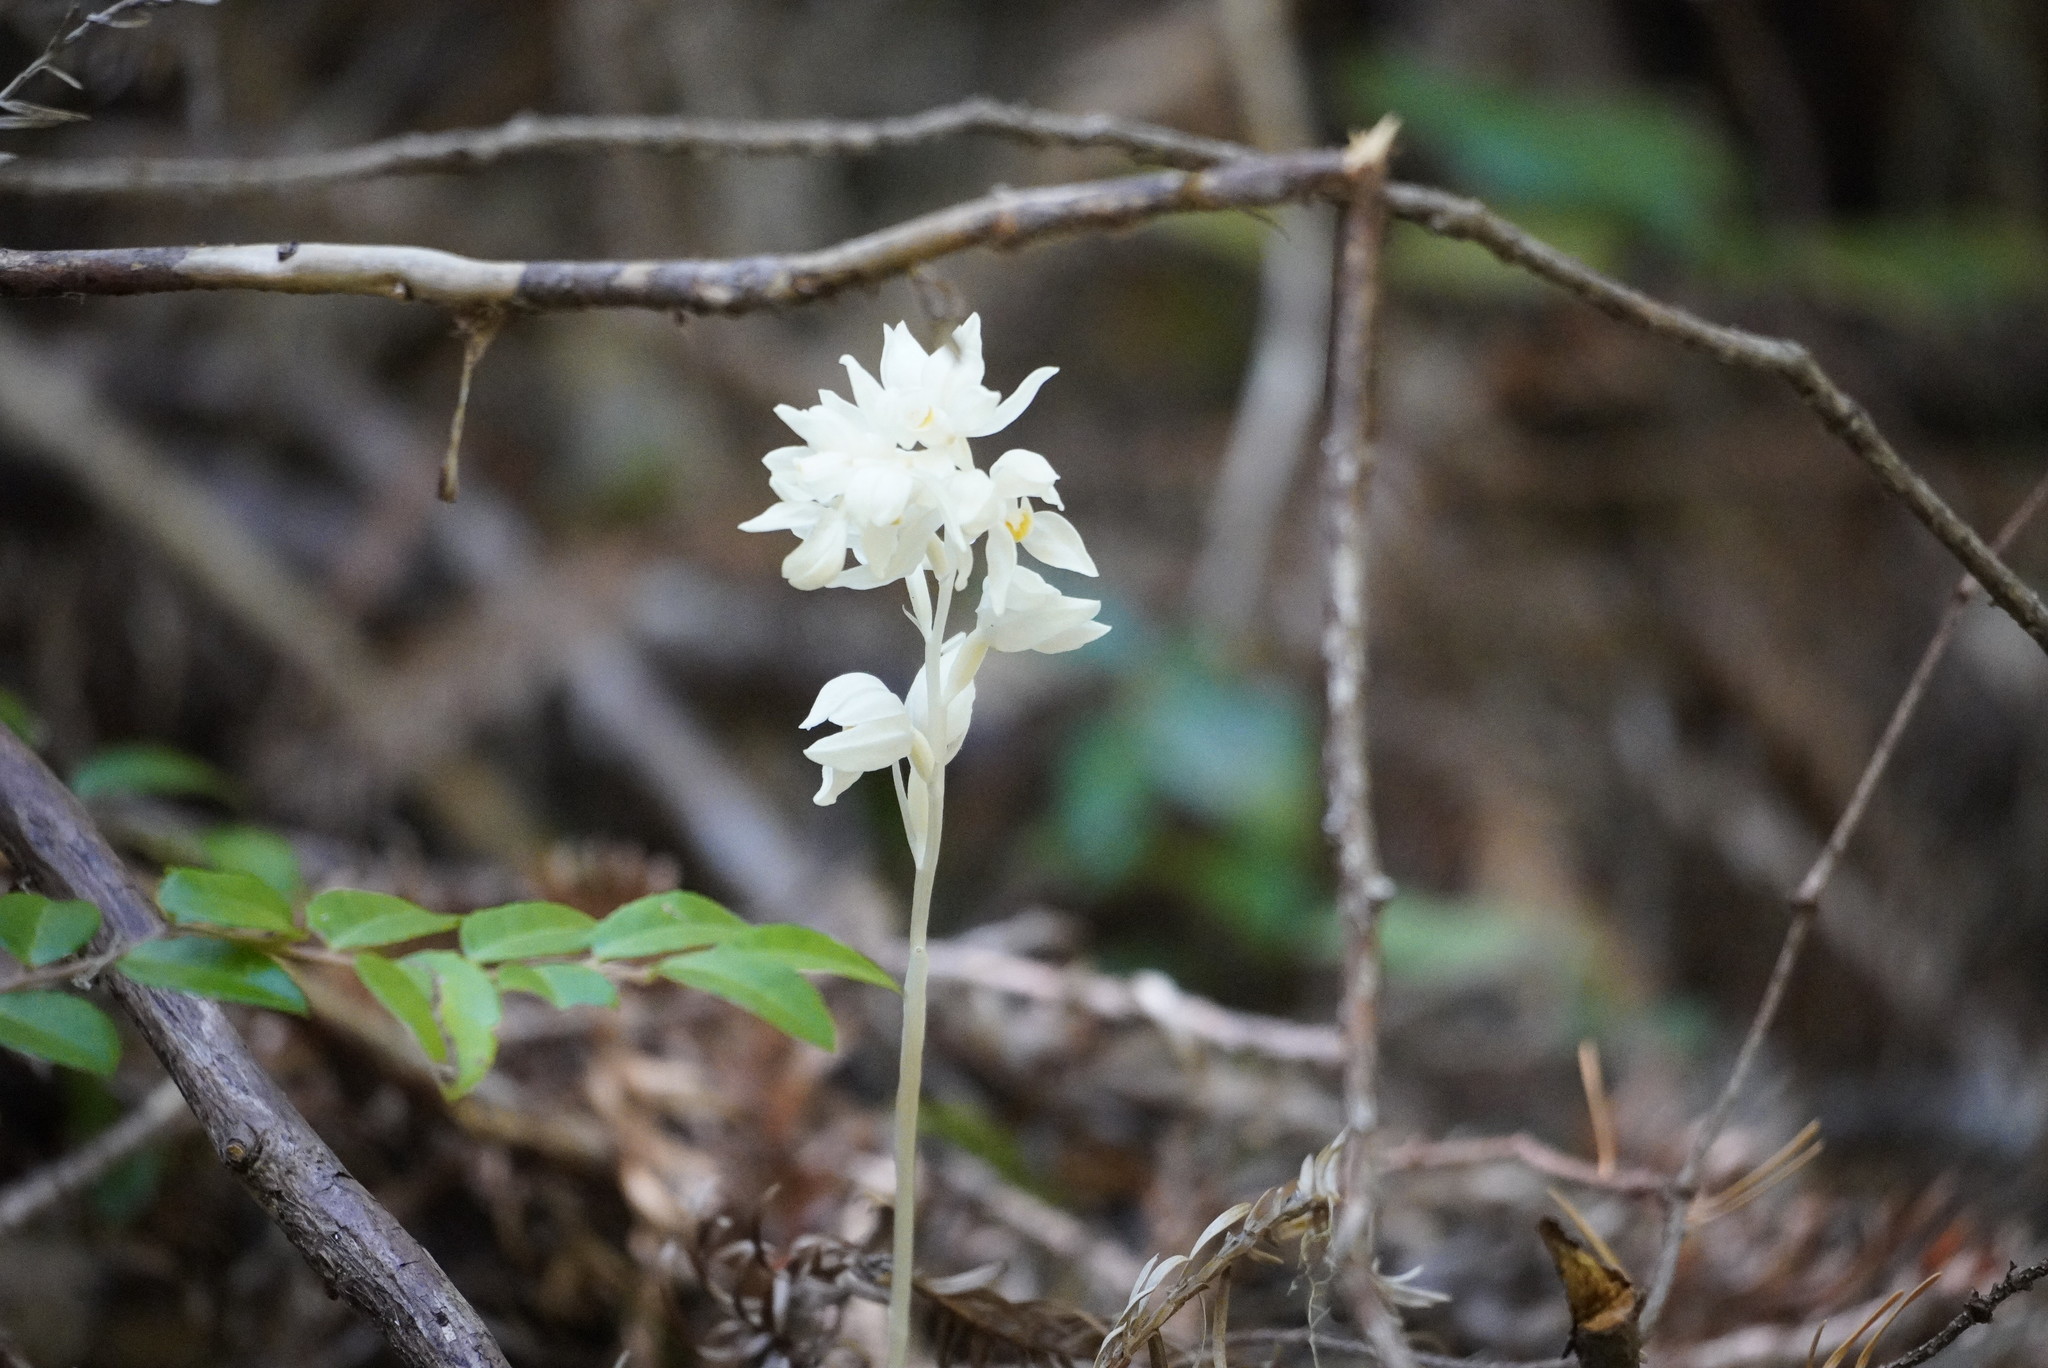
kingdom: Plantae
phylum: Tracheophyta
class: Liliopsida
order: Asparagales
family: Orchidaceae
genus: Cephalanthera
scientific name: Cephalanthera austiniae
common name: Phantom orchid
